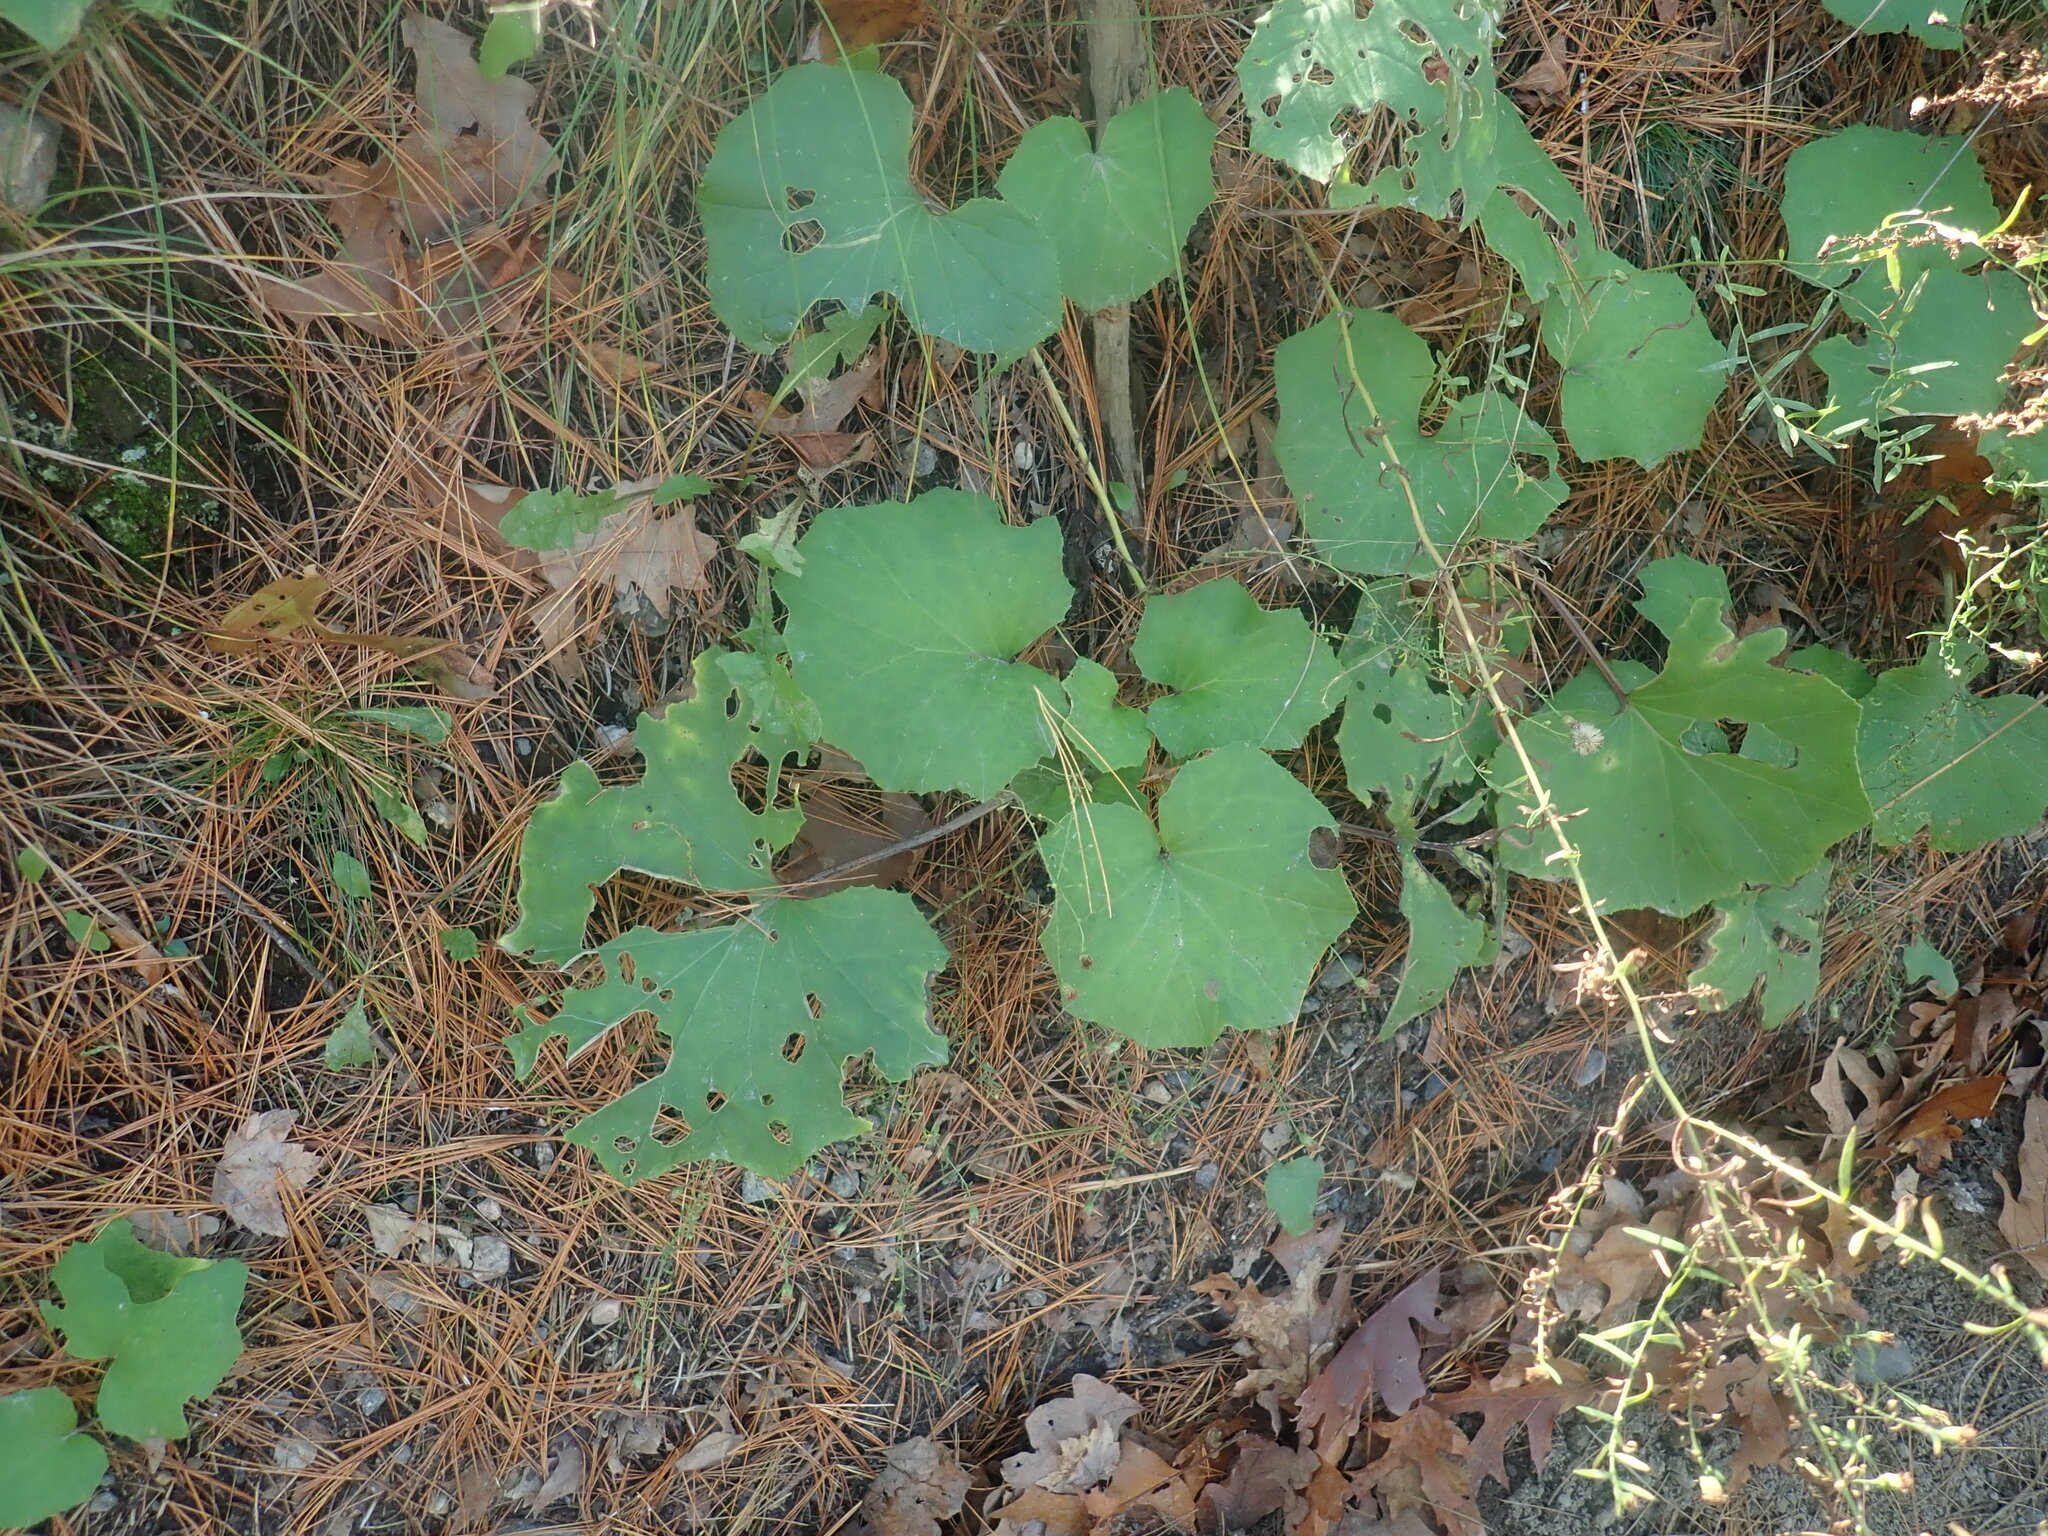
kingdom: Plantae
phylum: Tracheophyta
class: Magnoliopsida
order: Asterales
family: Asteraceae
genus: Tussilago
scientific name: Tussilago farfara
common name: Coltsfoot
